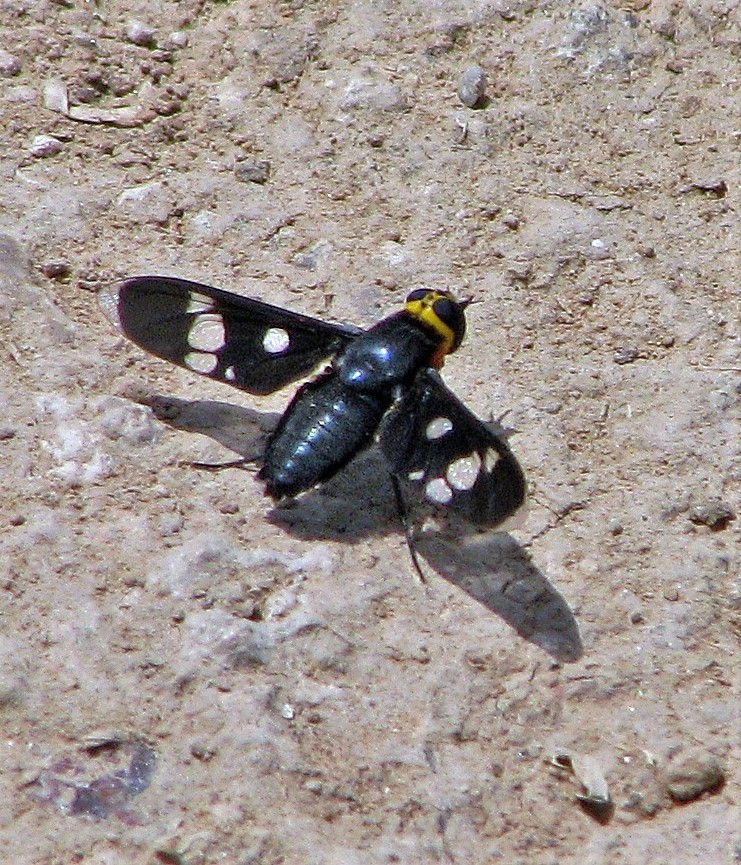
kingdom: Animalia
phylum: Arthropoda
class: Insecta
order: Diptera
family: Bombyliidae
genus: Hyperalonia
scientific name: Hyperalonia morio
